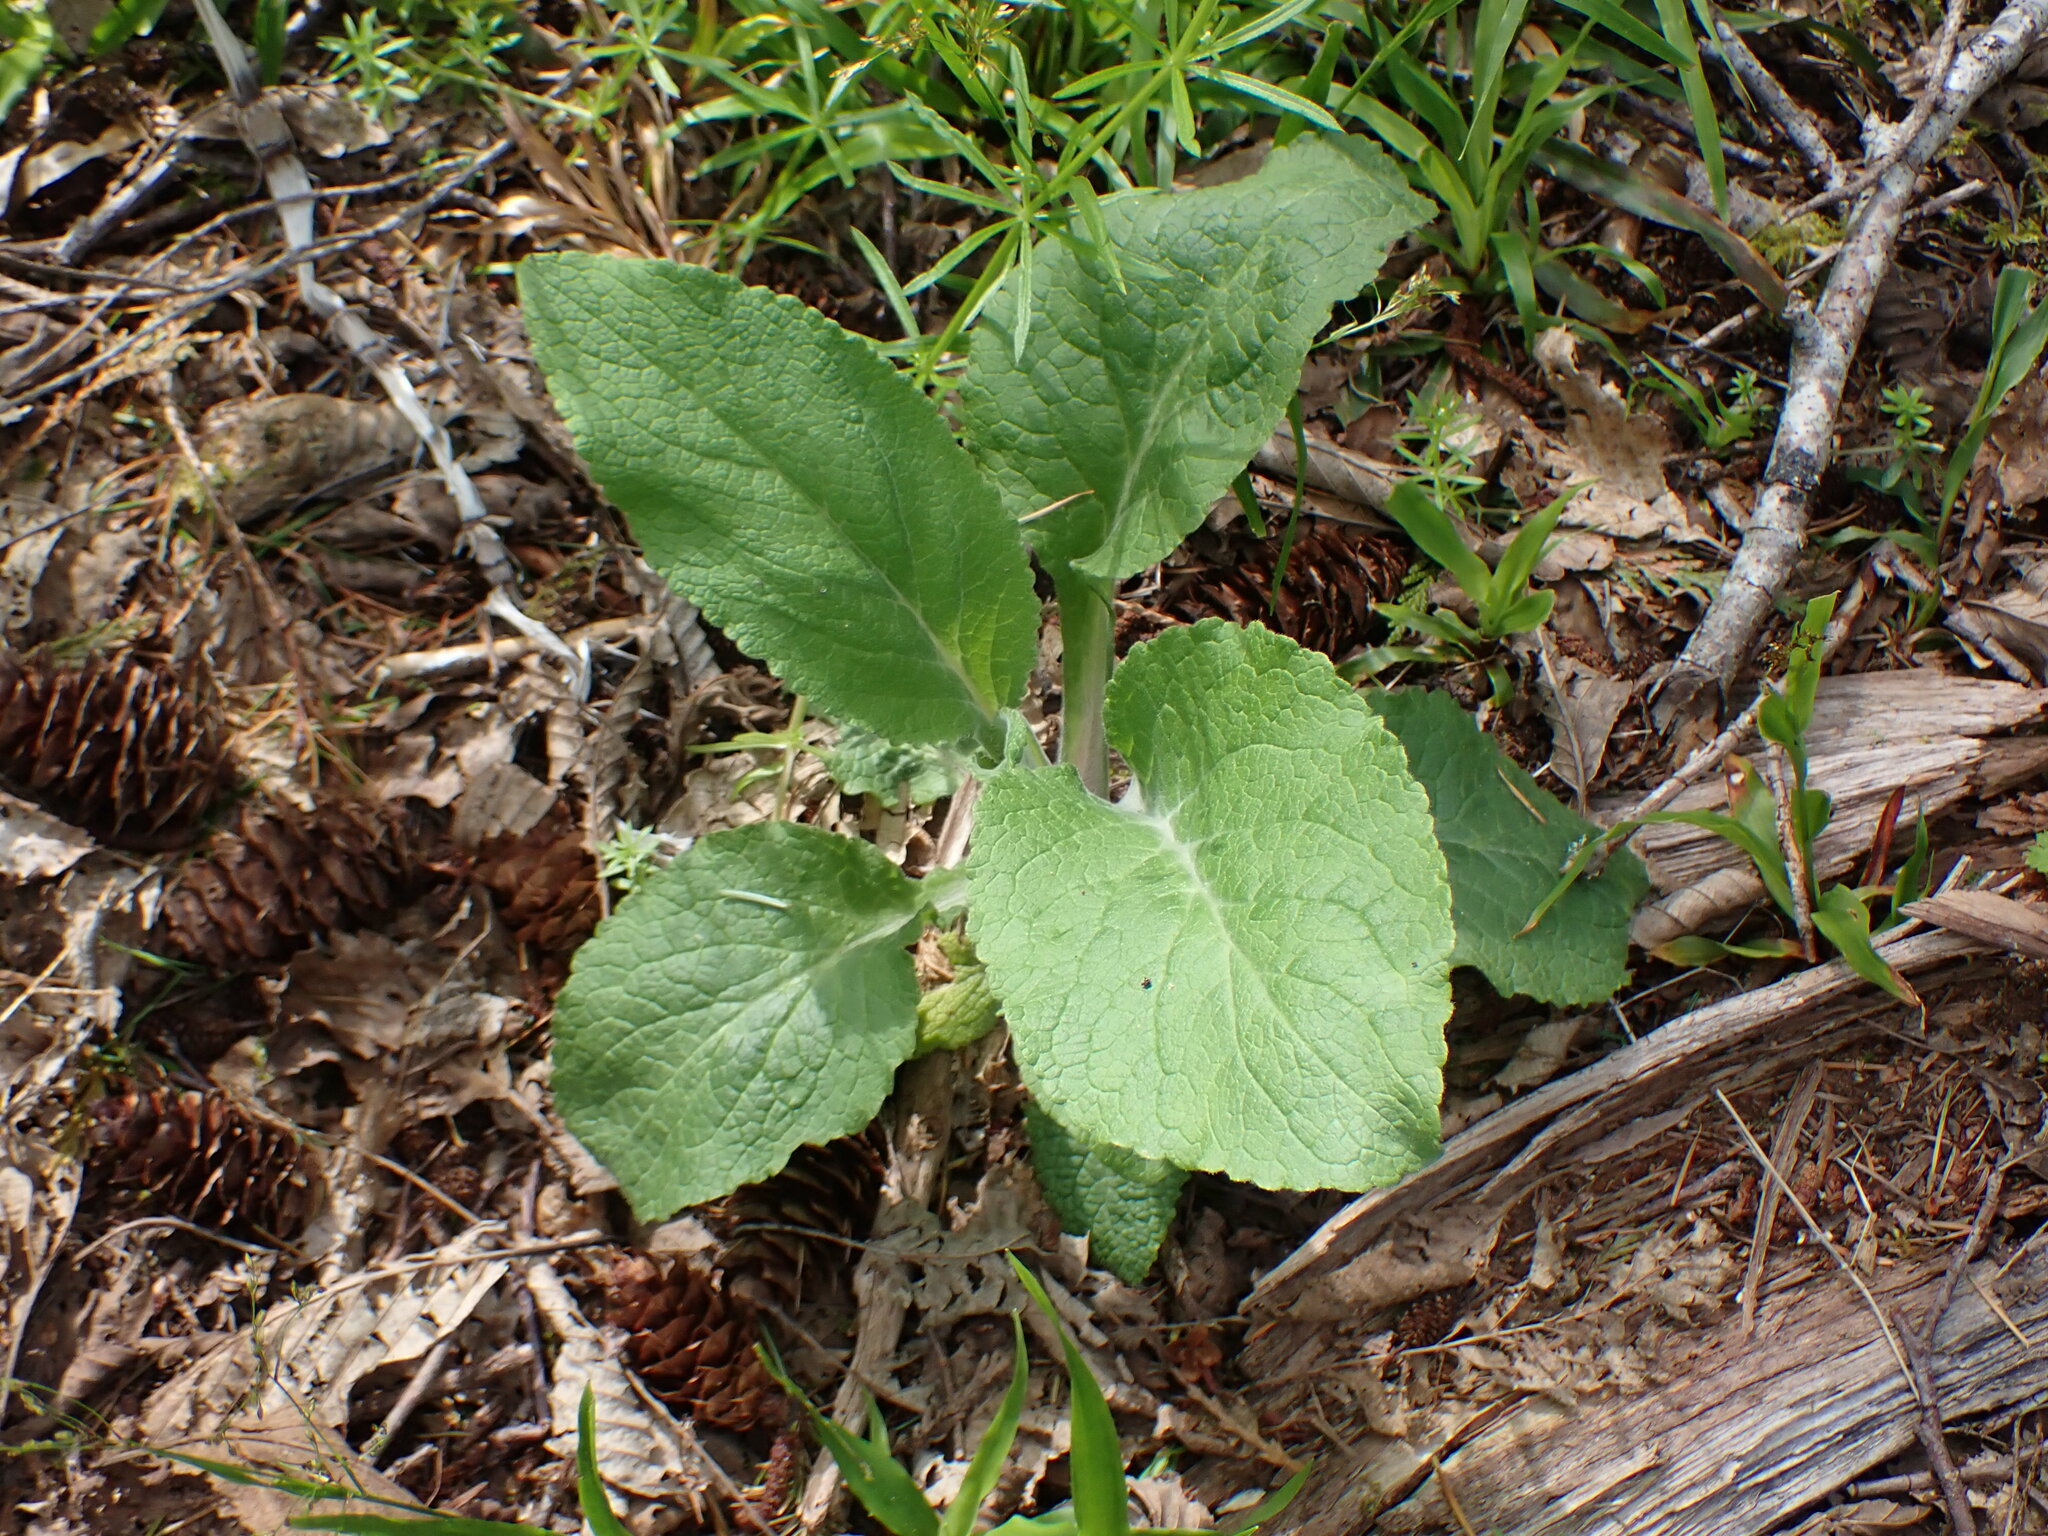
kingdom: Plantae
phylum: Tracheophyta
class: Magnoliopsida
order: Lamiales
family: Plantaginaceae
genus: Digitalis
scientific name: Digitalis purpurea
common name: Foxglove
